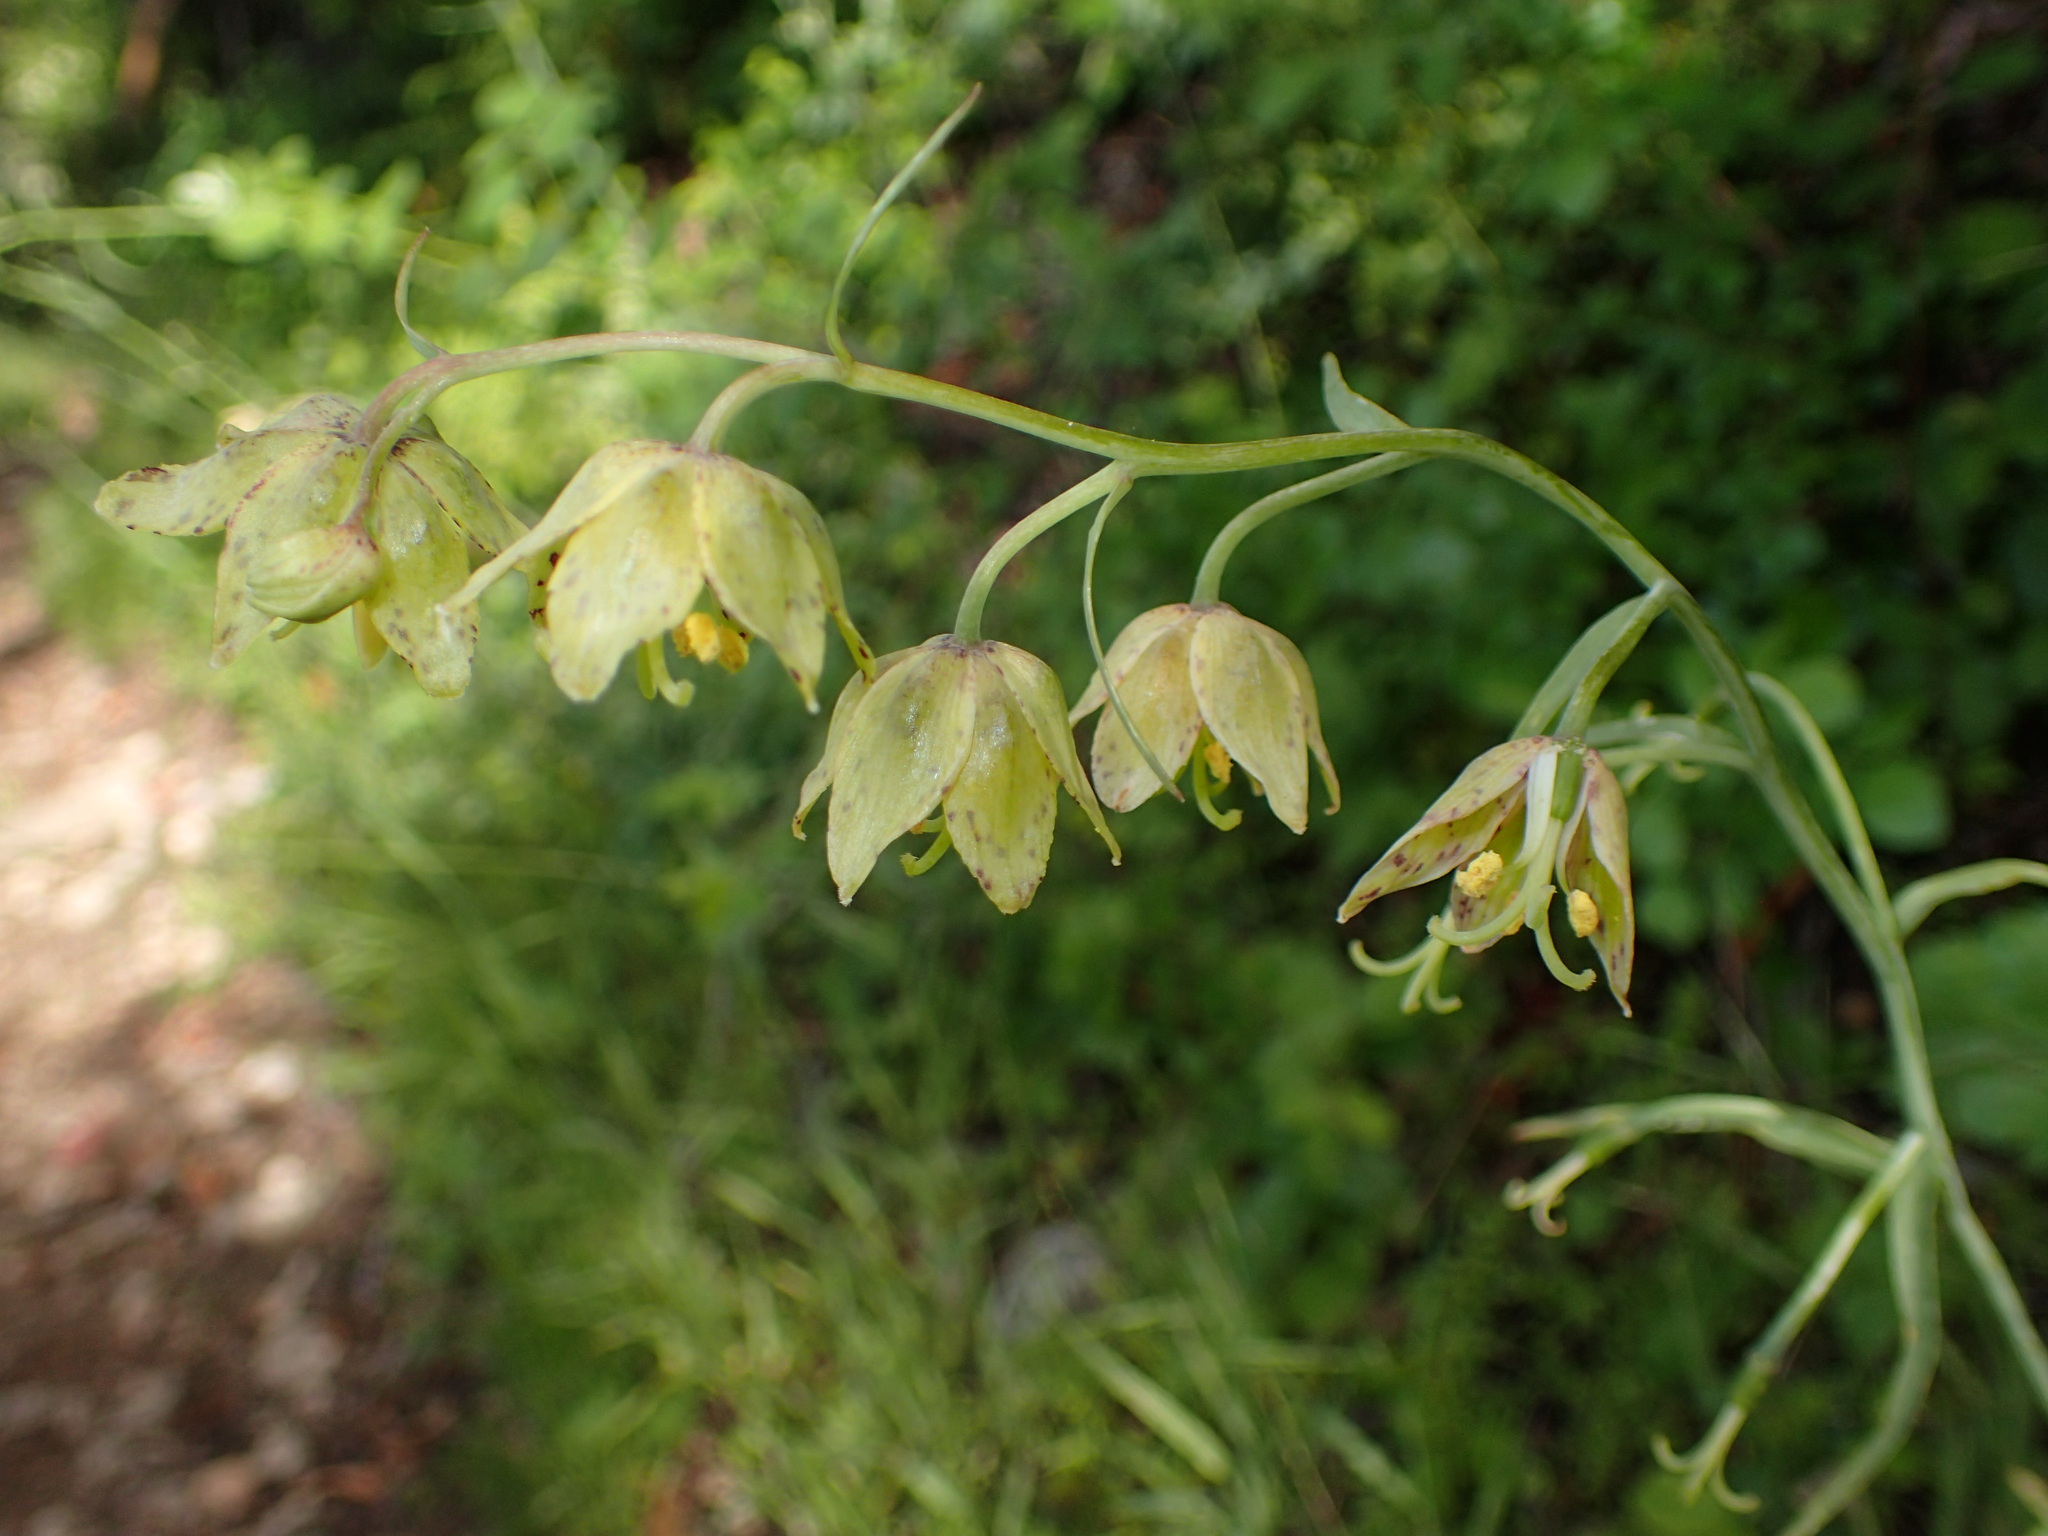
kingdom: Plantae
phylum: Tracheophyta
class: Liliopsida
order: Liliales
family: Liliaceae
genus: Fritillaria
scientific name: Fritillaria ojaiensis
